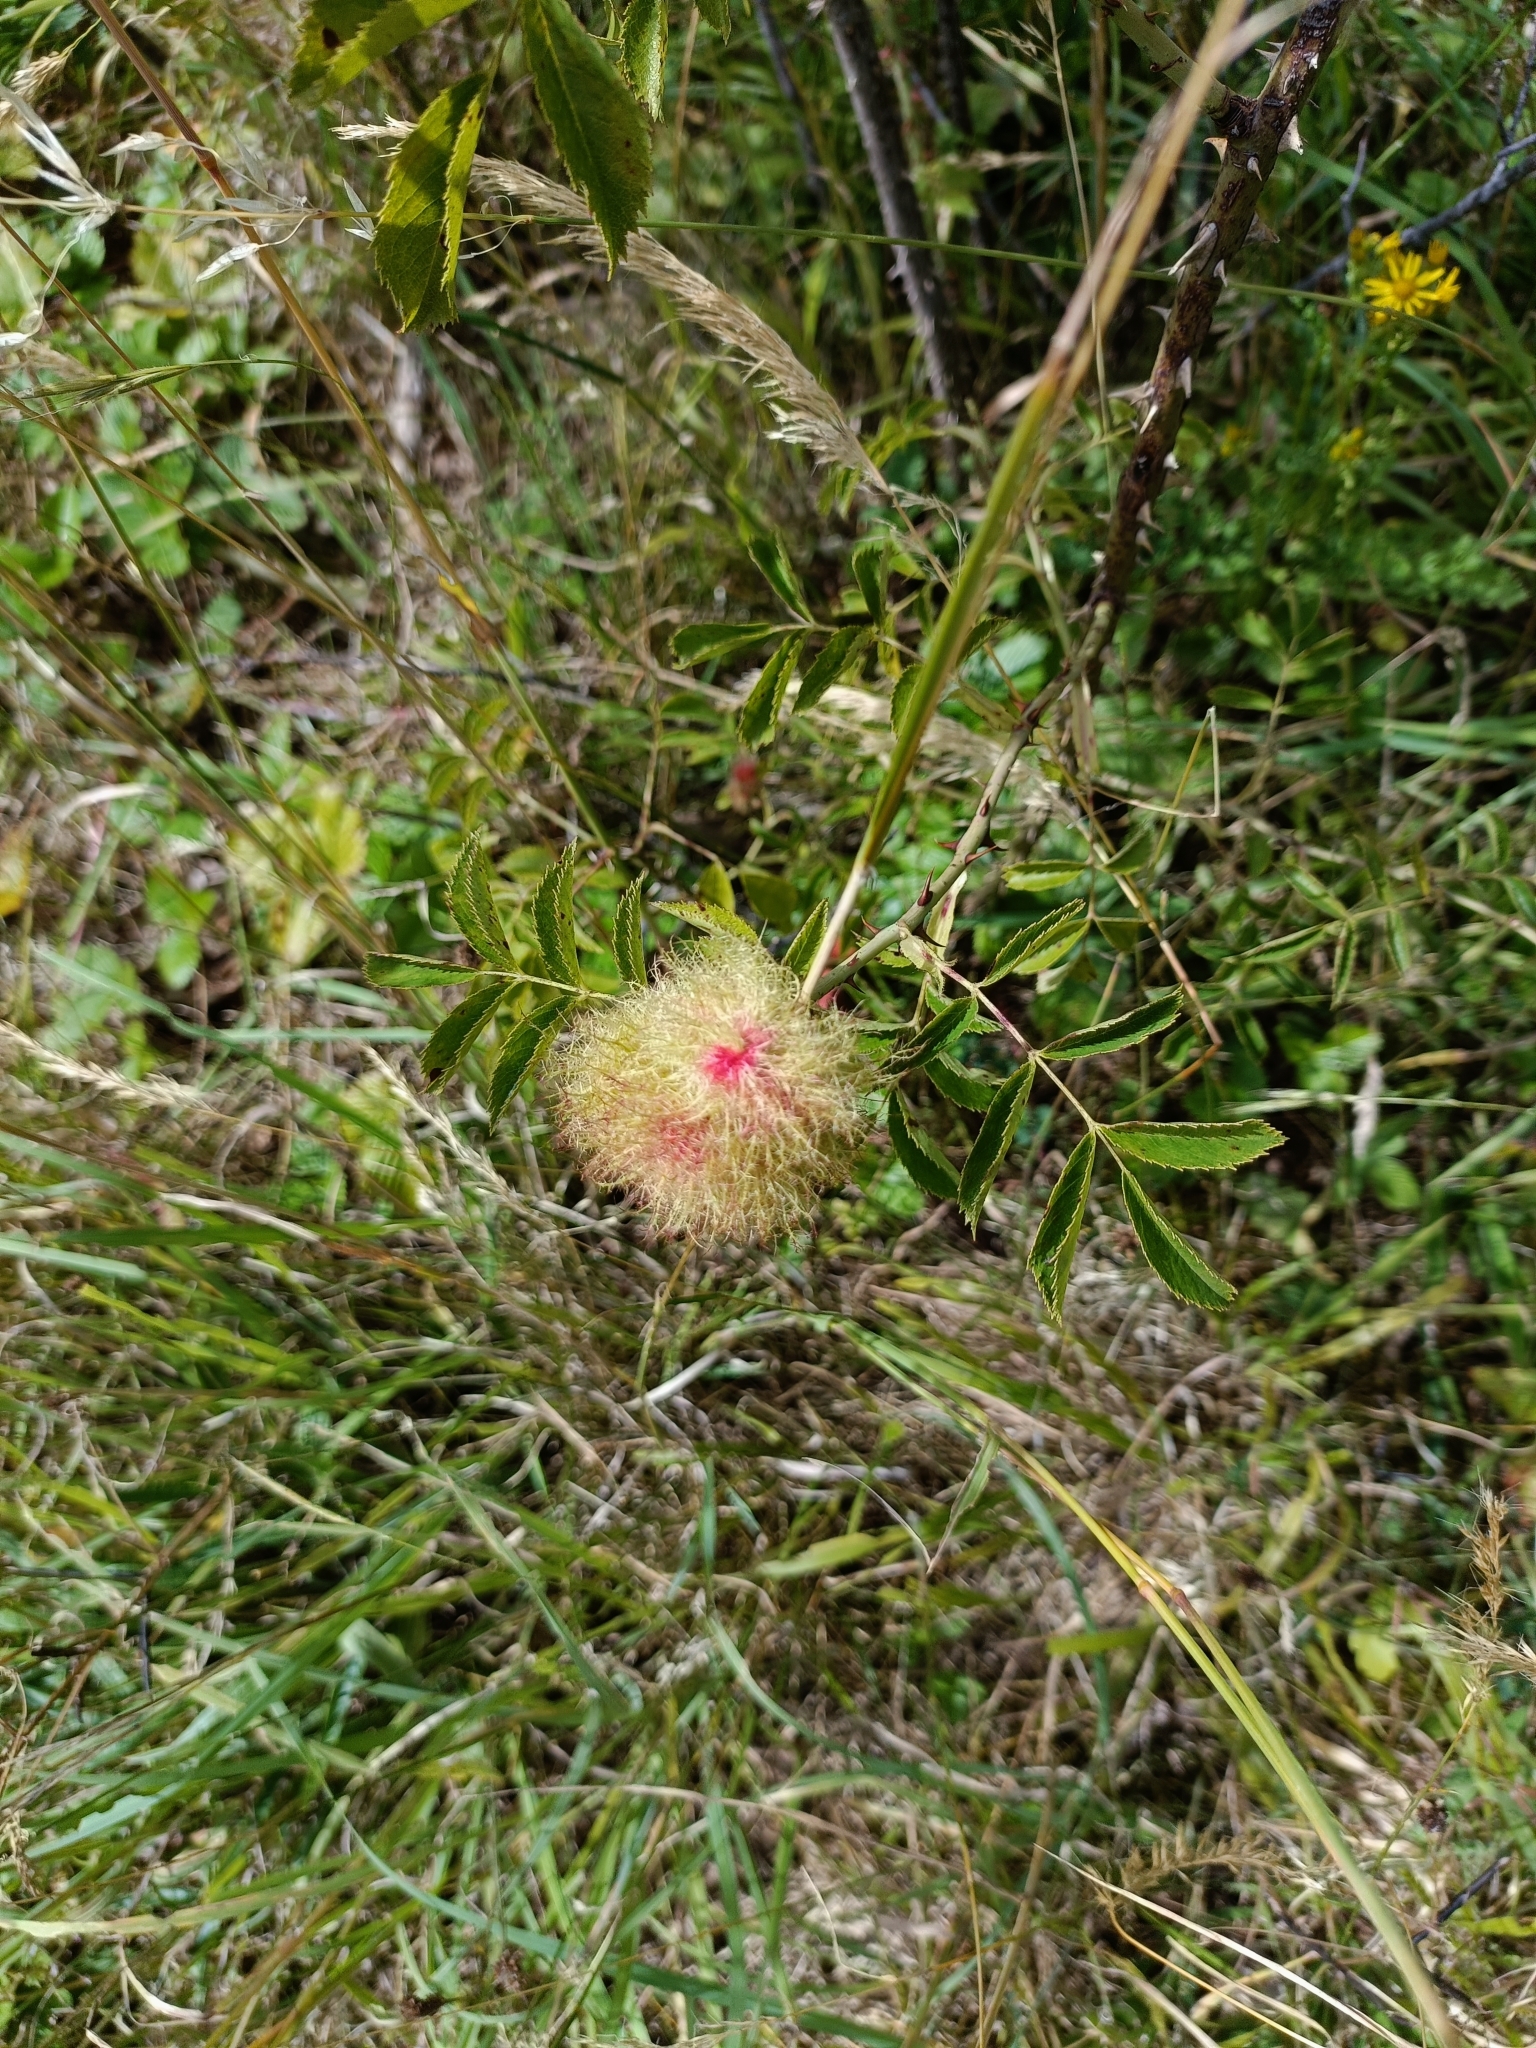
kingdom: Animalia
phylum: Arthropoda
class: Insecta
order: Hymenoptera
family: Cynipidae
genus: Diplolepis
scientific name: Diplolepis rosae
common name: Bedeguar gall
